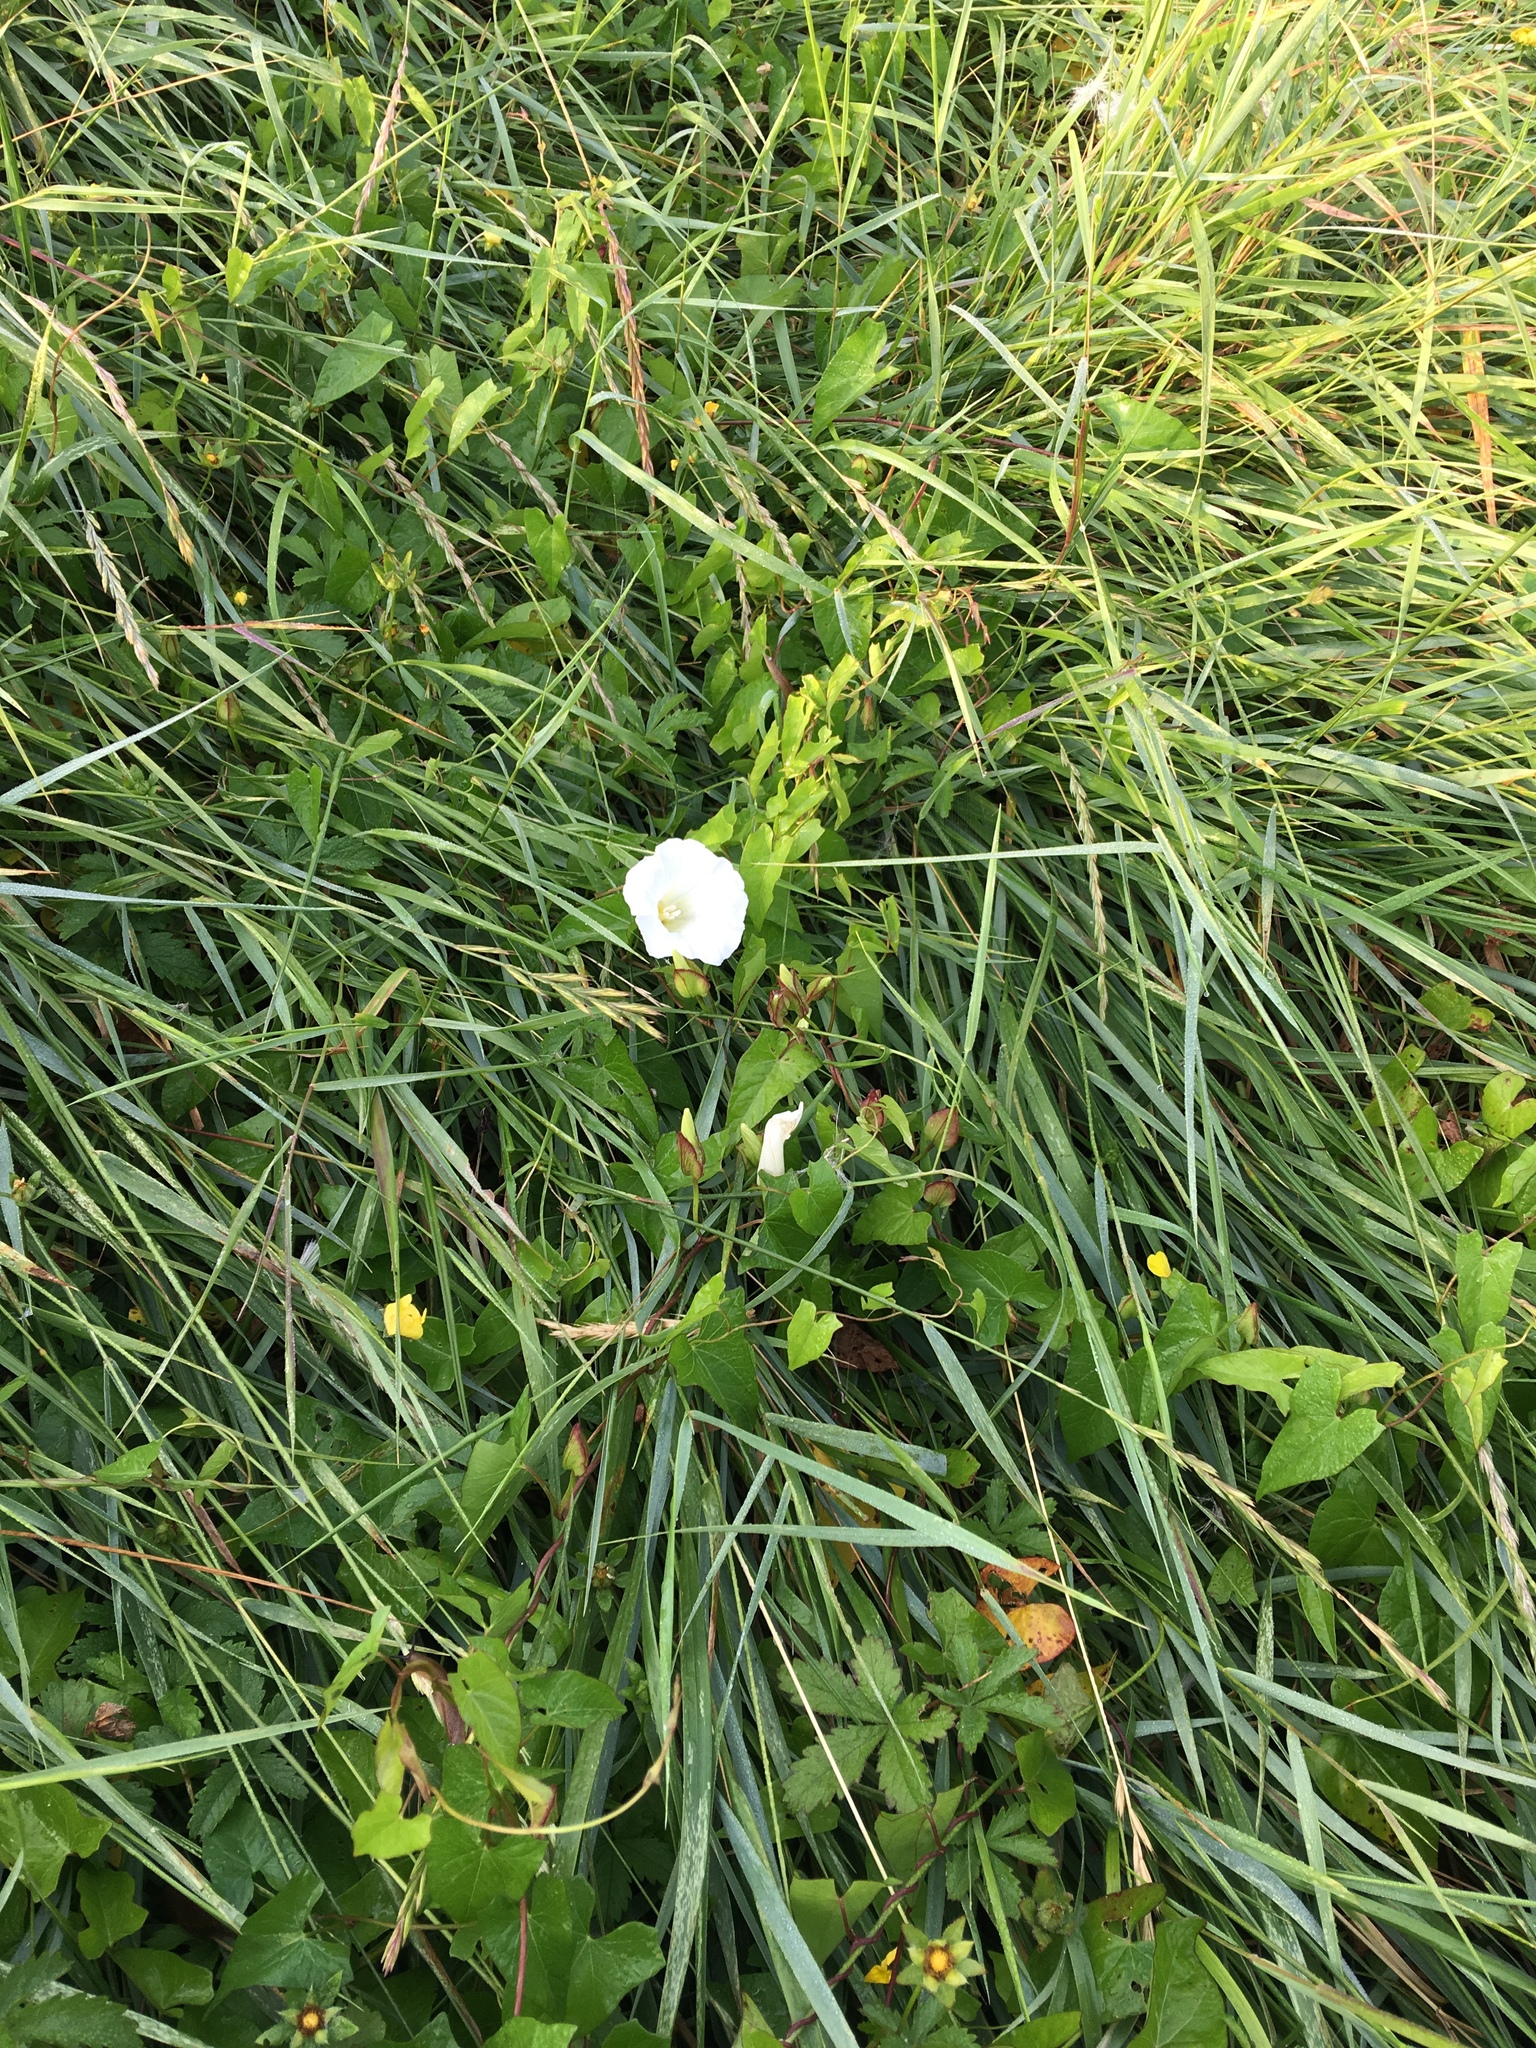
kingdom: Plantae
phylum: Tracheophyta
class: Magnoliopsida
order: Solanales
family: Convolvulaceae
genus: Calystegia
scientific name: Calystegia sepium
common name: Hedge bindweed
